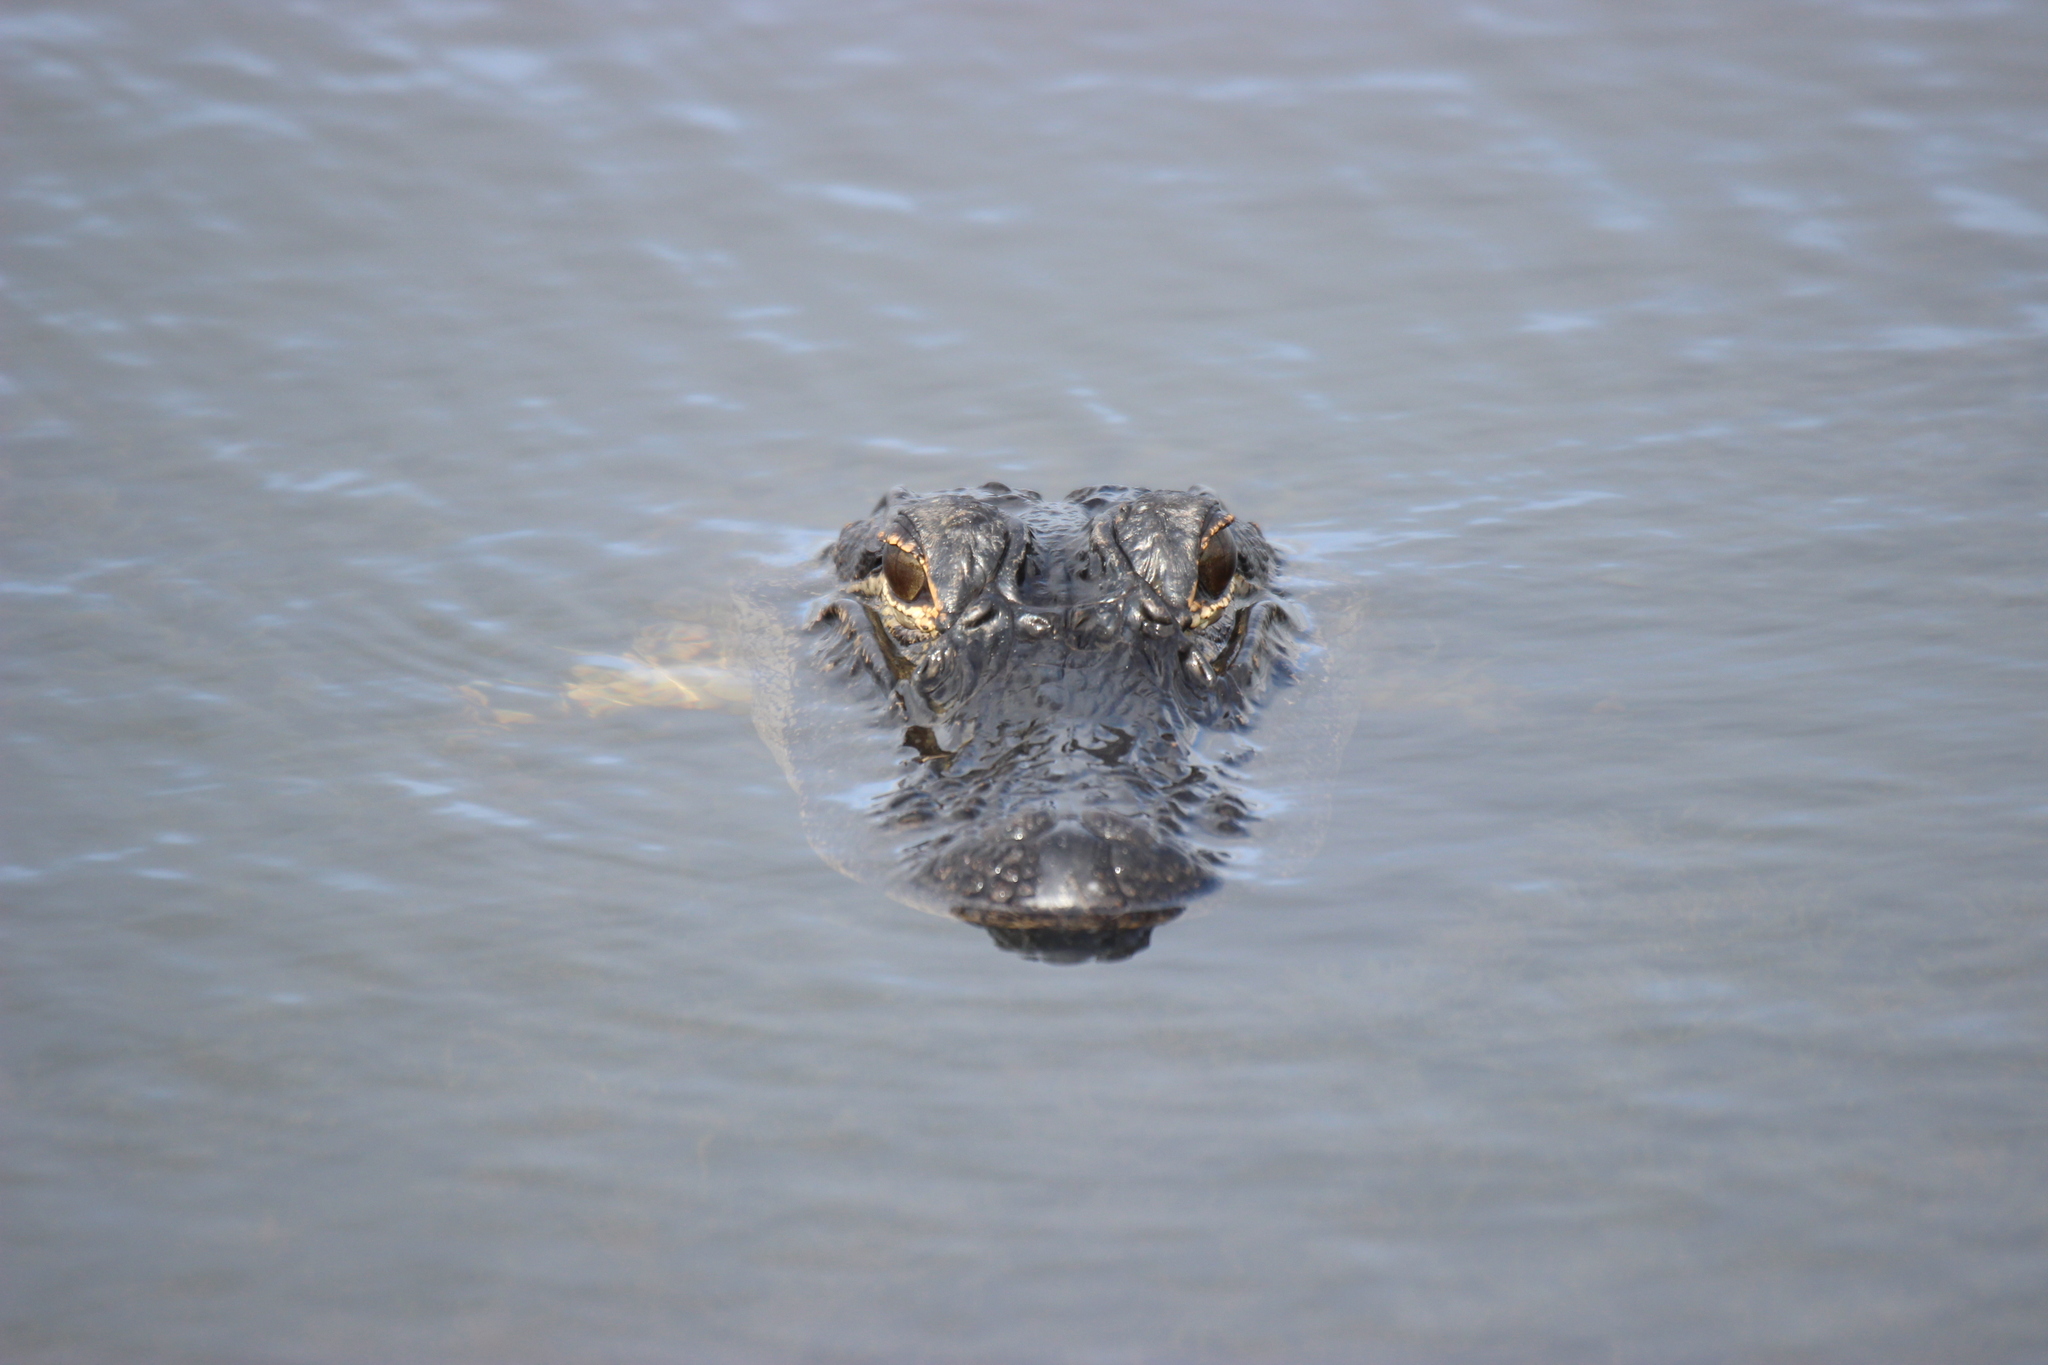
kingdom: Animalia
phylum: Chordata
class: Crocodylia
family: Alligatoridae
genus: Alligator
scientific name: Alligator mississippiensis
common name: American alligator
